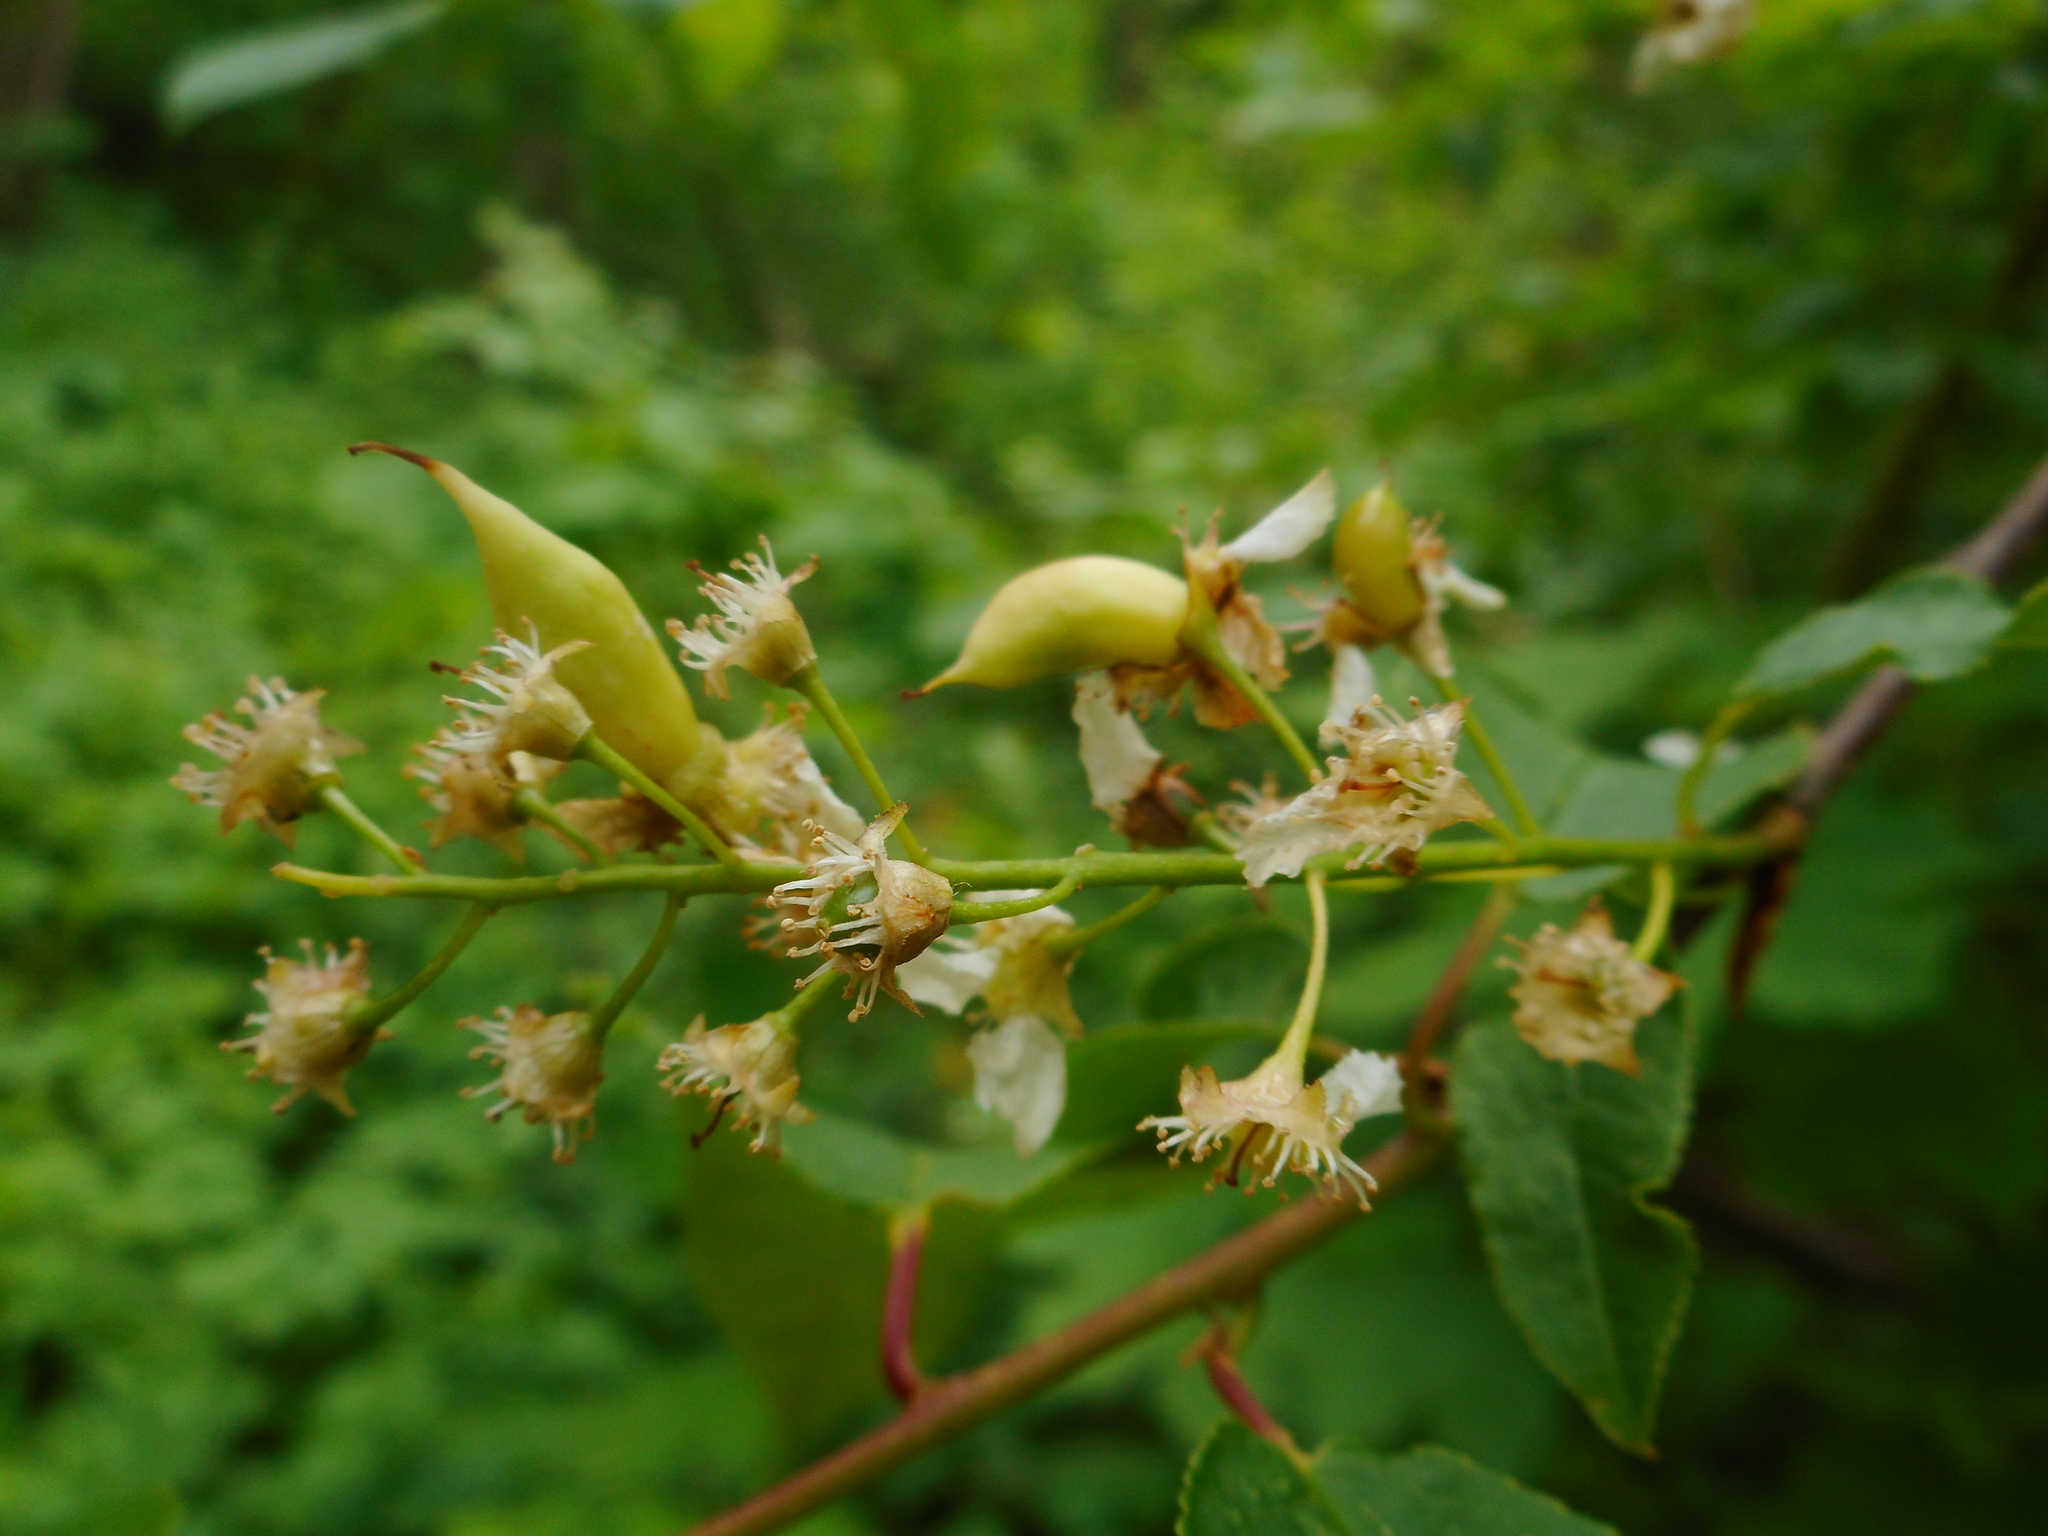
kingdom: Fungi
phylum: Ascomycota
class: Taphrinomycetes
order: Taphrinales
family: Taphrinaceae
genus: Taphrina
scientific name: Taphrina padi
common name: Bird cherry pocket
